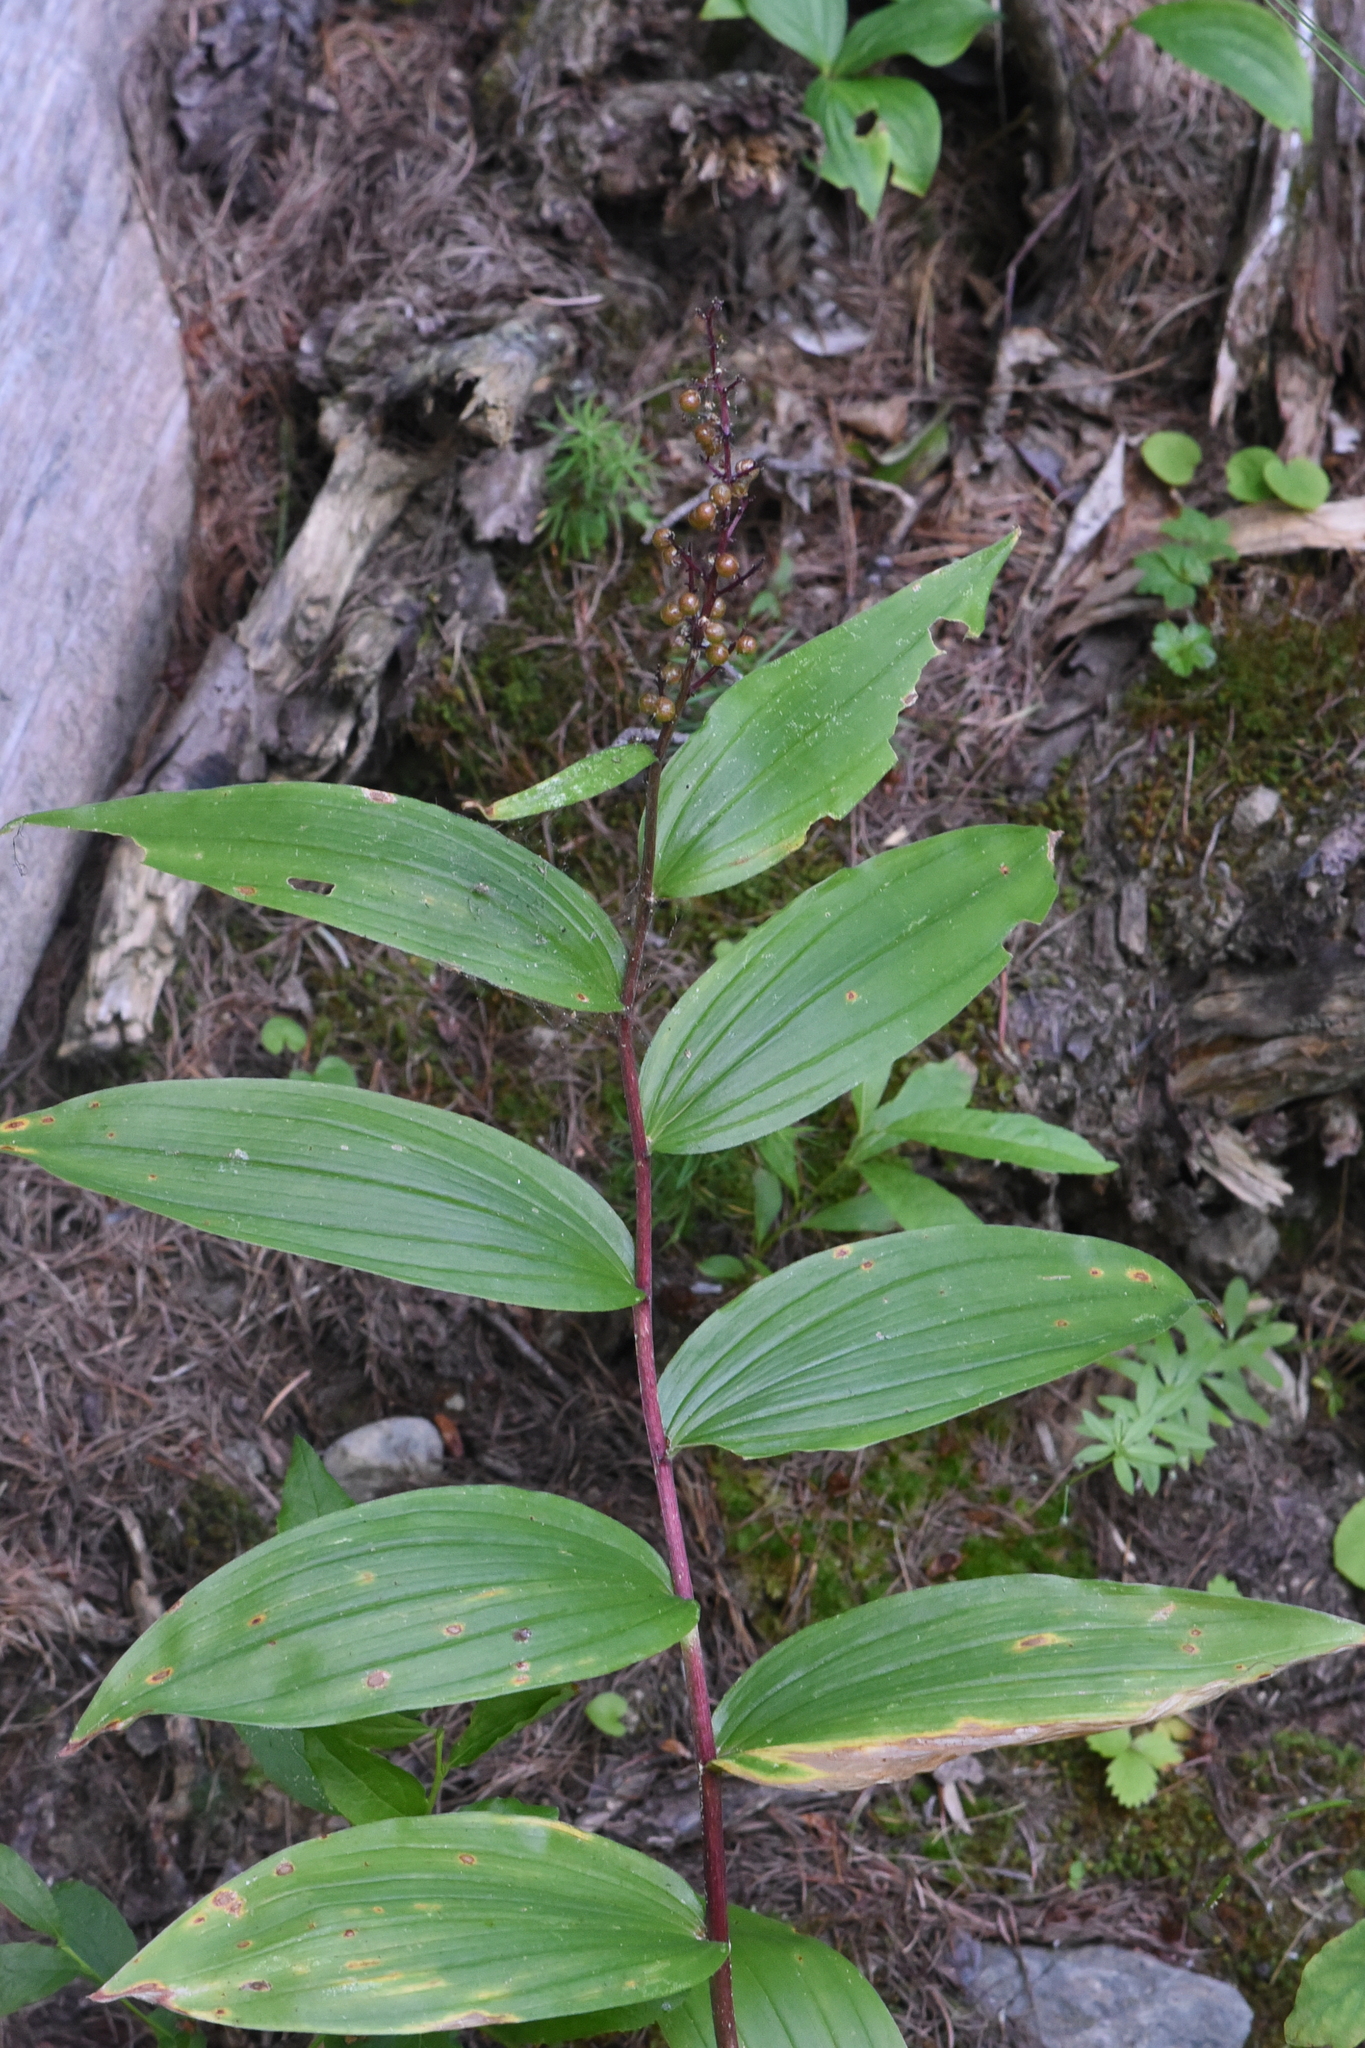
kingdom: Plantae
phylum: Tracheophyta
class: Liliopsida
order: Asparagales
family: Asparagaceae
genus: Maianthemum
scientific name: Maianthemum racemosum
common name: False spikenard
